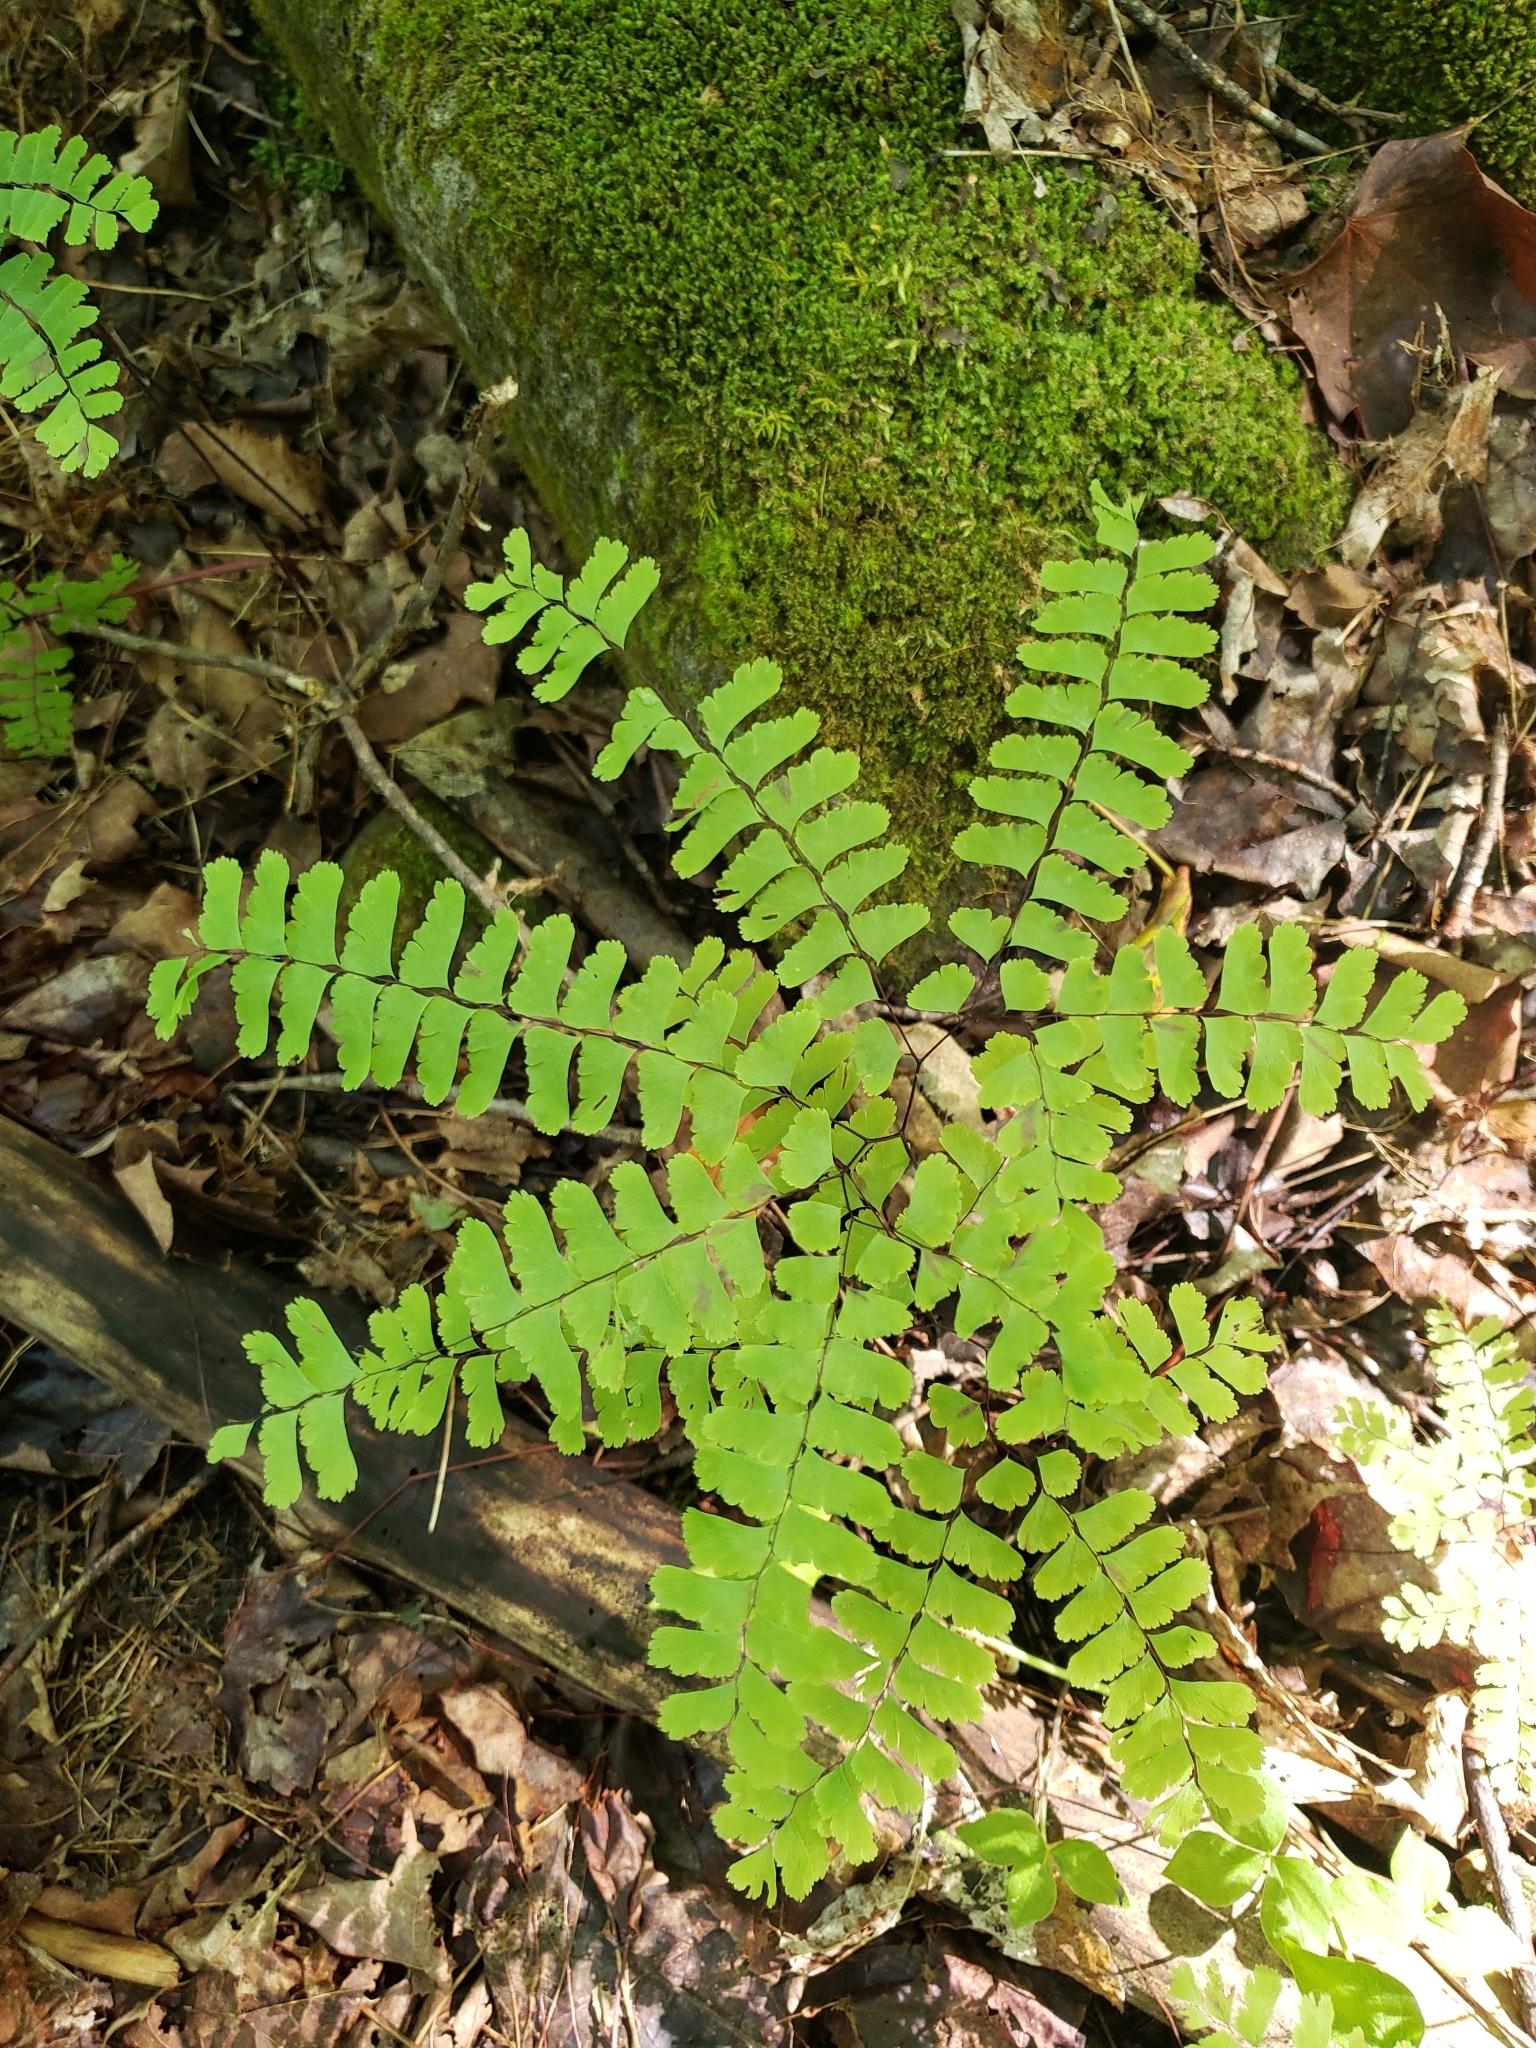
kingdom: Plantae
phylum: Tracheophyta
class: Polypodiopsida
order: Polypodiales
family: Pteridaceae
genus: Adiantum
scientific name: Adiantum pedatum
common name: Five-finger fern
